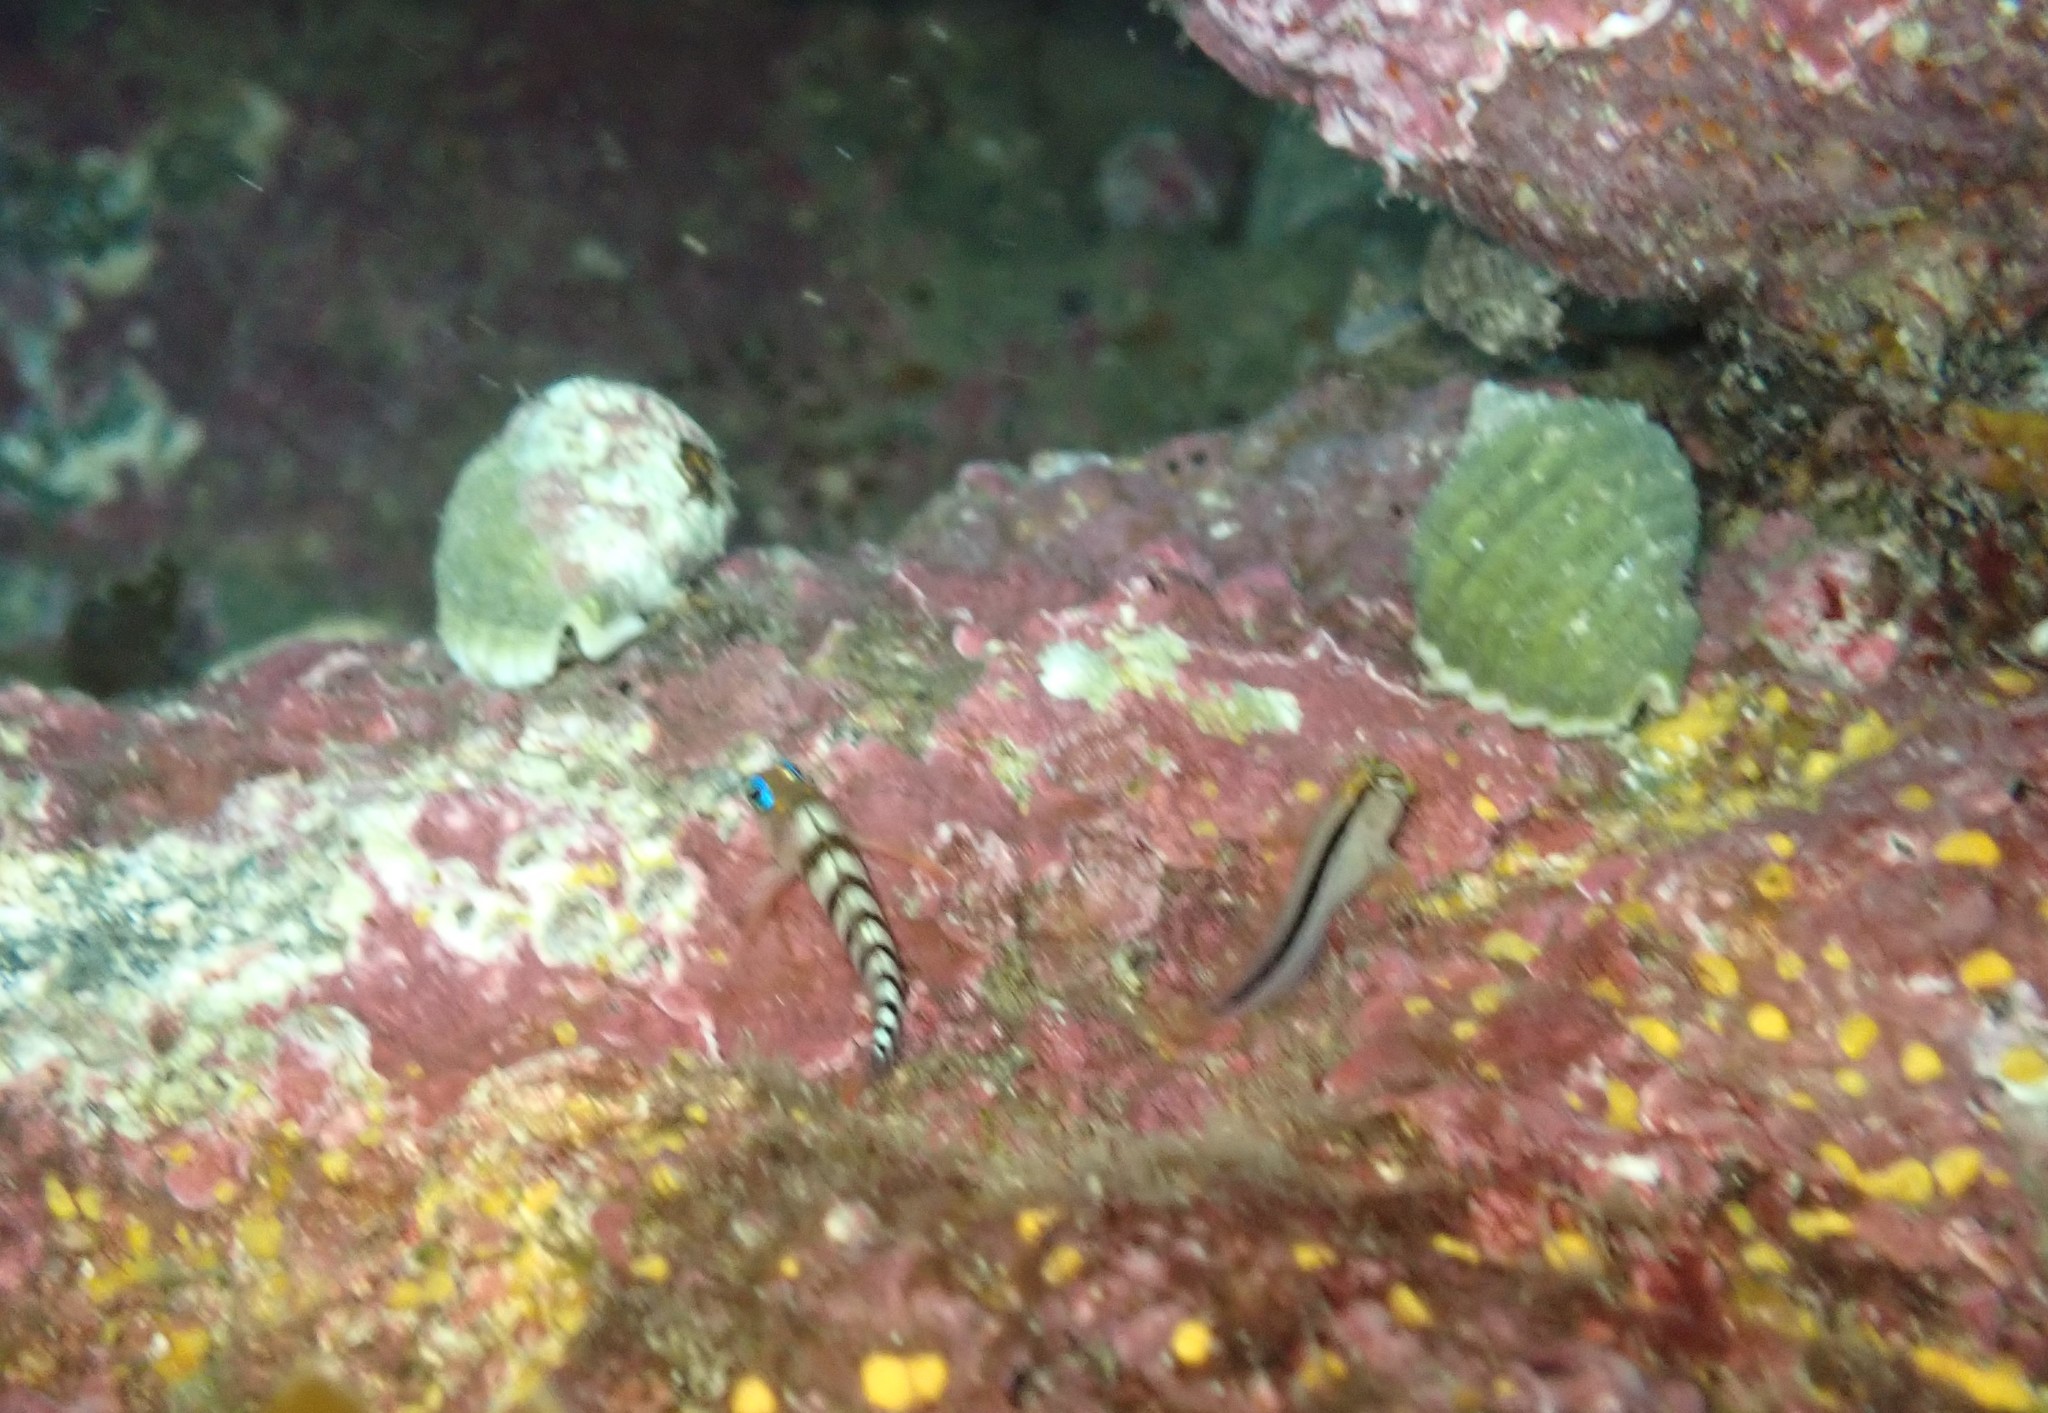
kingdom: Animalia
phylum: Chordata
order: Perciformes
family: Tripterygiidae
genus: Notoclinops
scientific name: Notoclinops segmentatus
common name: Blue-eyed triplefin
